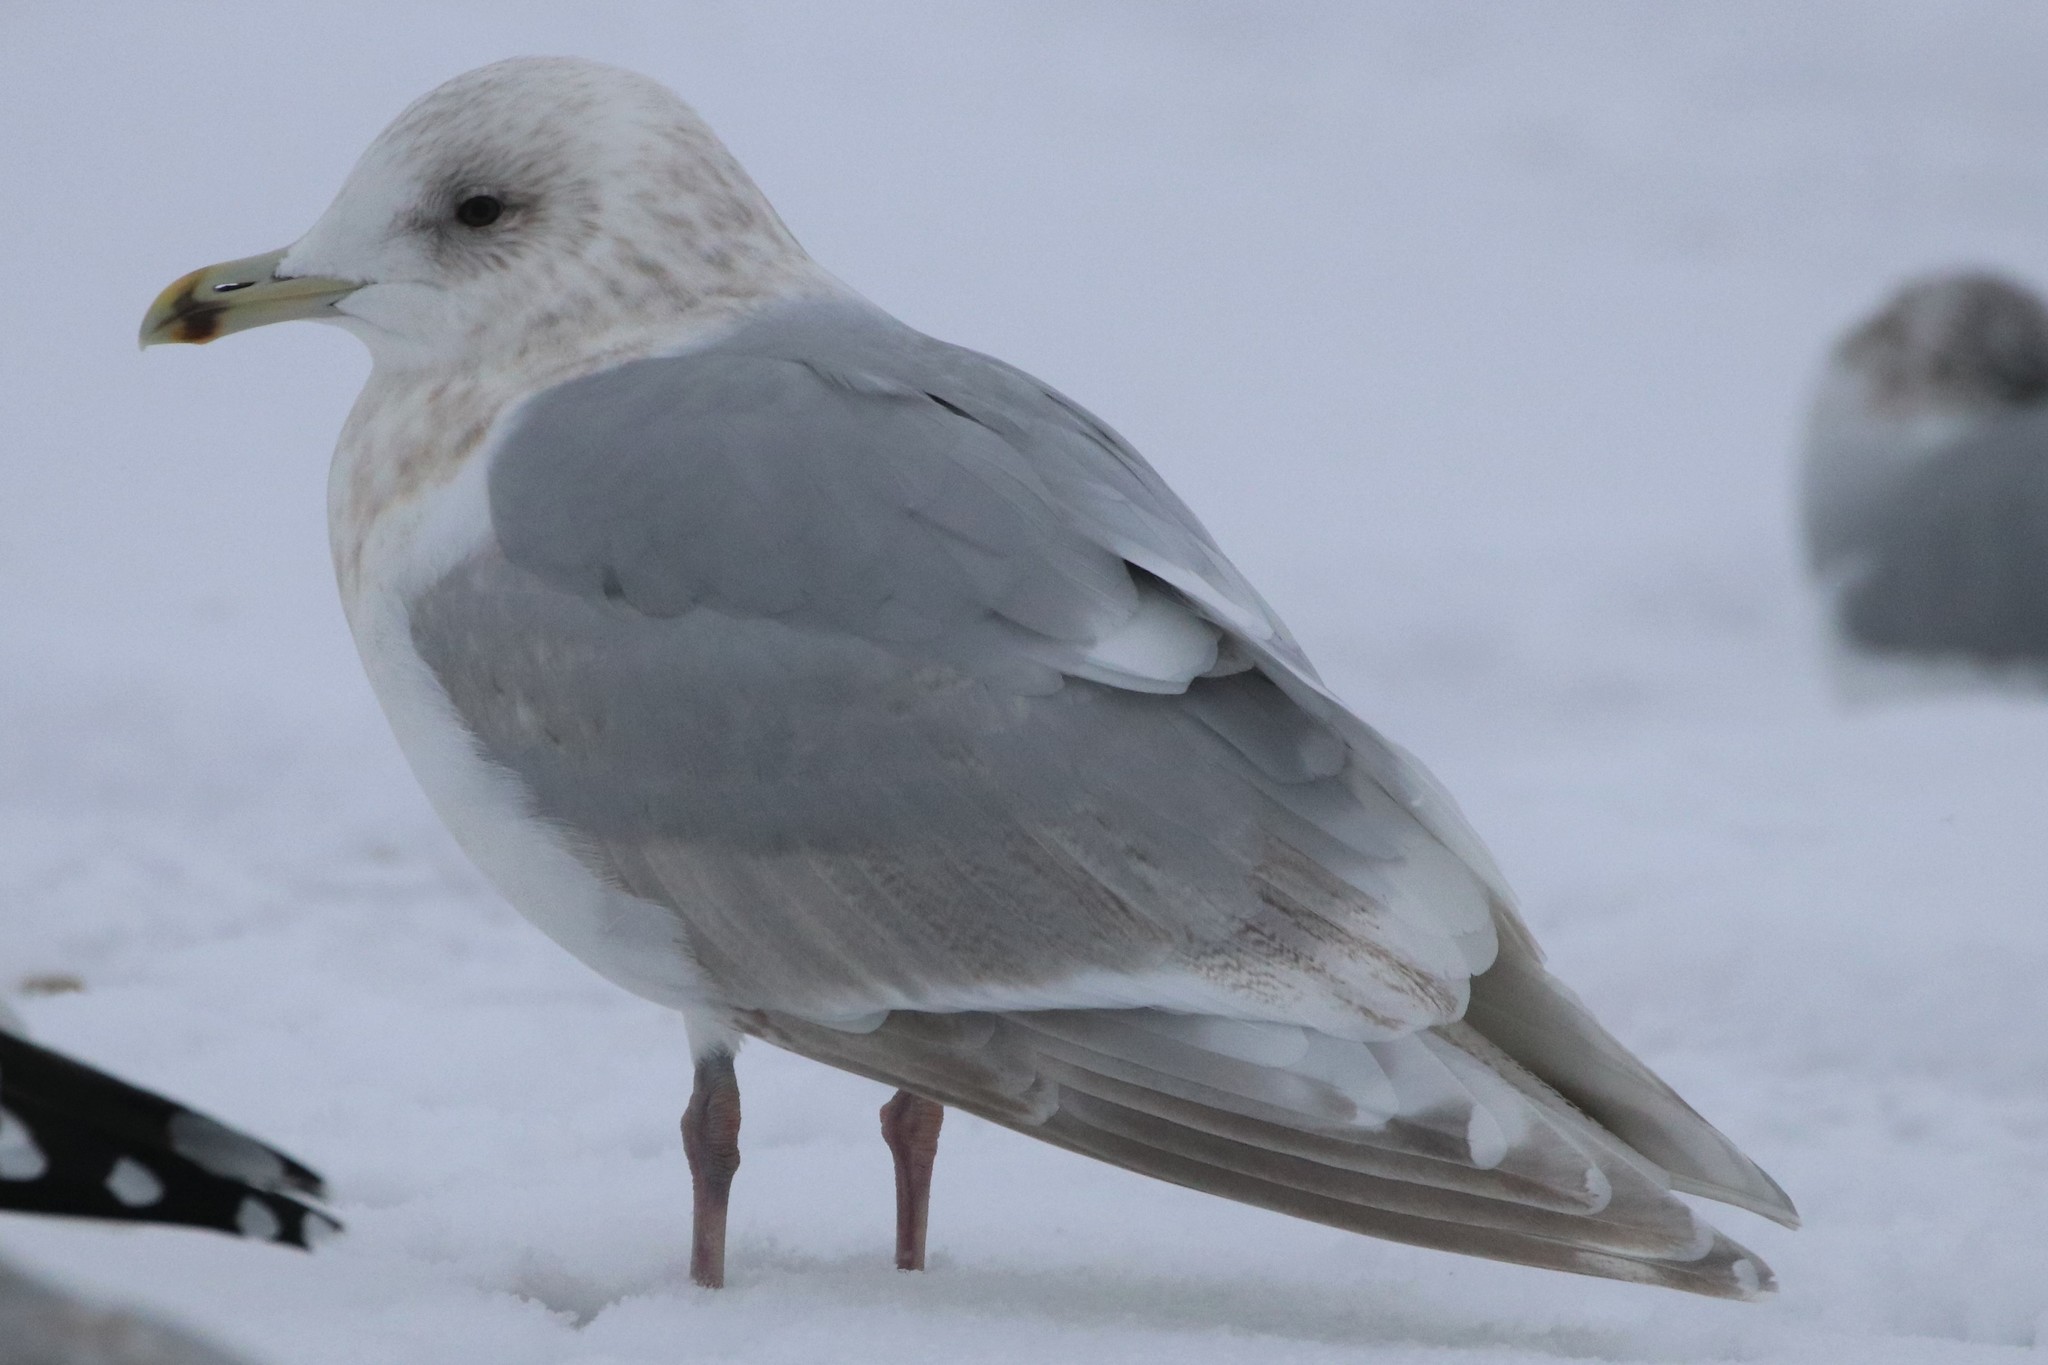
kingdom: Animalia
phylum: Chordata
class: Aves
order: Charadriiformes
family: Laridae
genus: Larus
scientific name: Larus glaucoides
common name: Iceland gull
